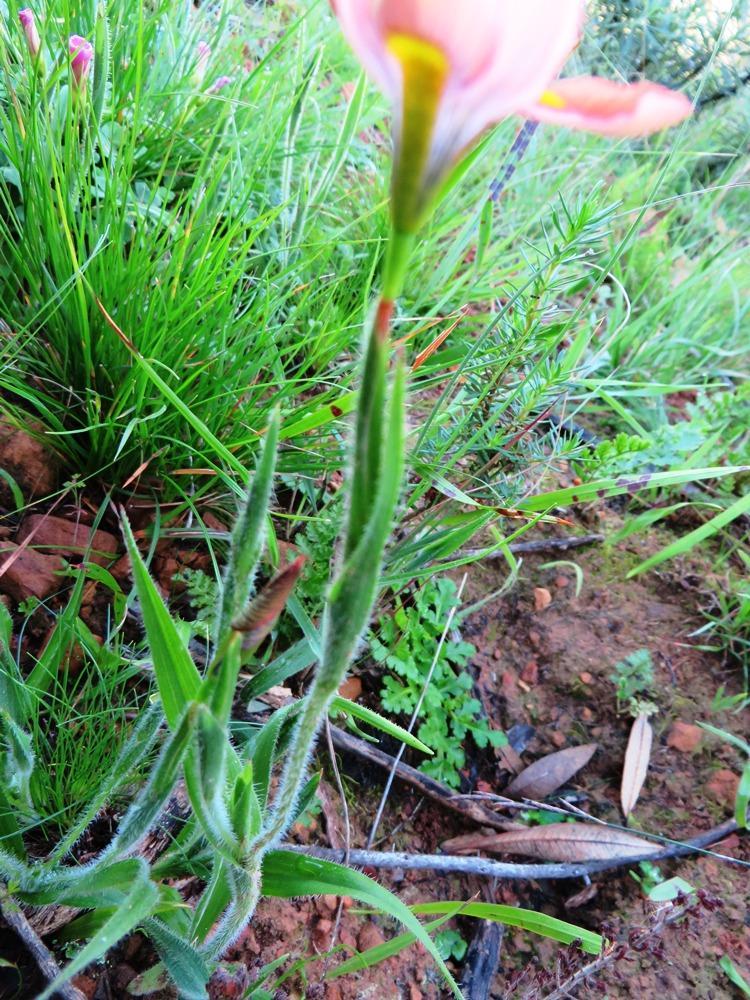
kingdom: Plantae
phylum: Tracheophyta
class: Liliopsida
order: Asparagales
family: Iridaceae
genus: Moraea
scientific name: Moraea papilionacea
